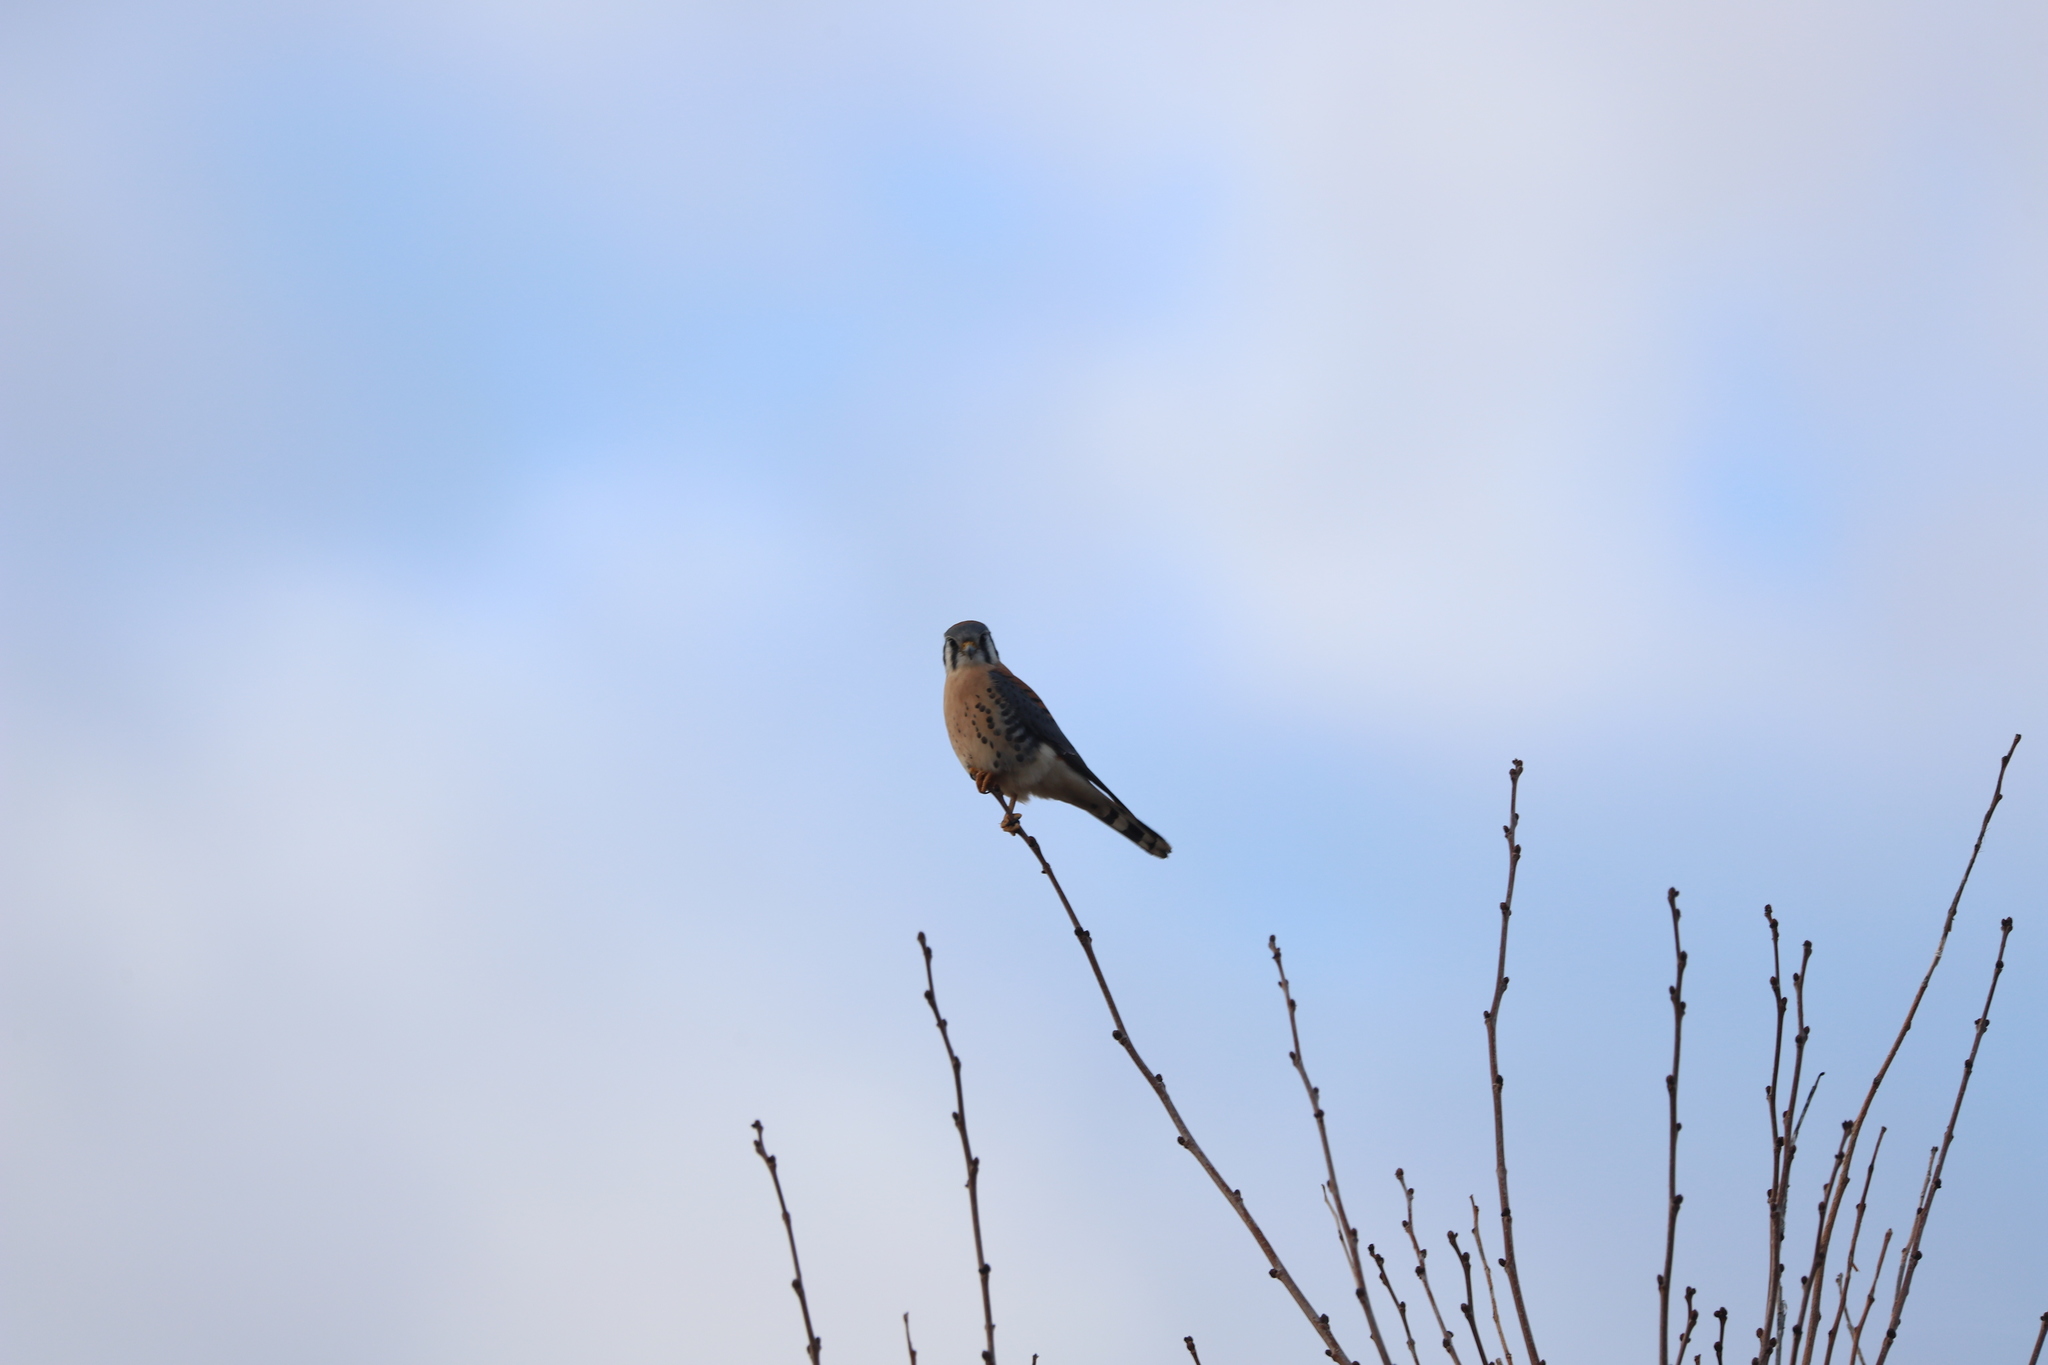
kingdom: Animalia
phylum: Chordata
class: Aves
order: Falconiformes
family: Falconidae
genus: Falco
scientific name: Falco sparverius
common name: American kestrel
